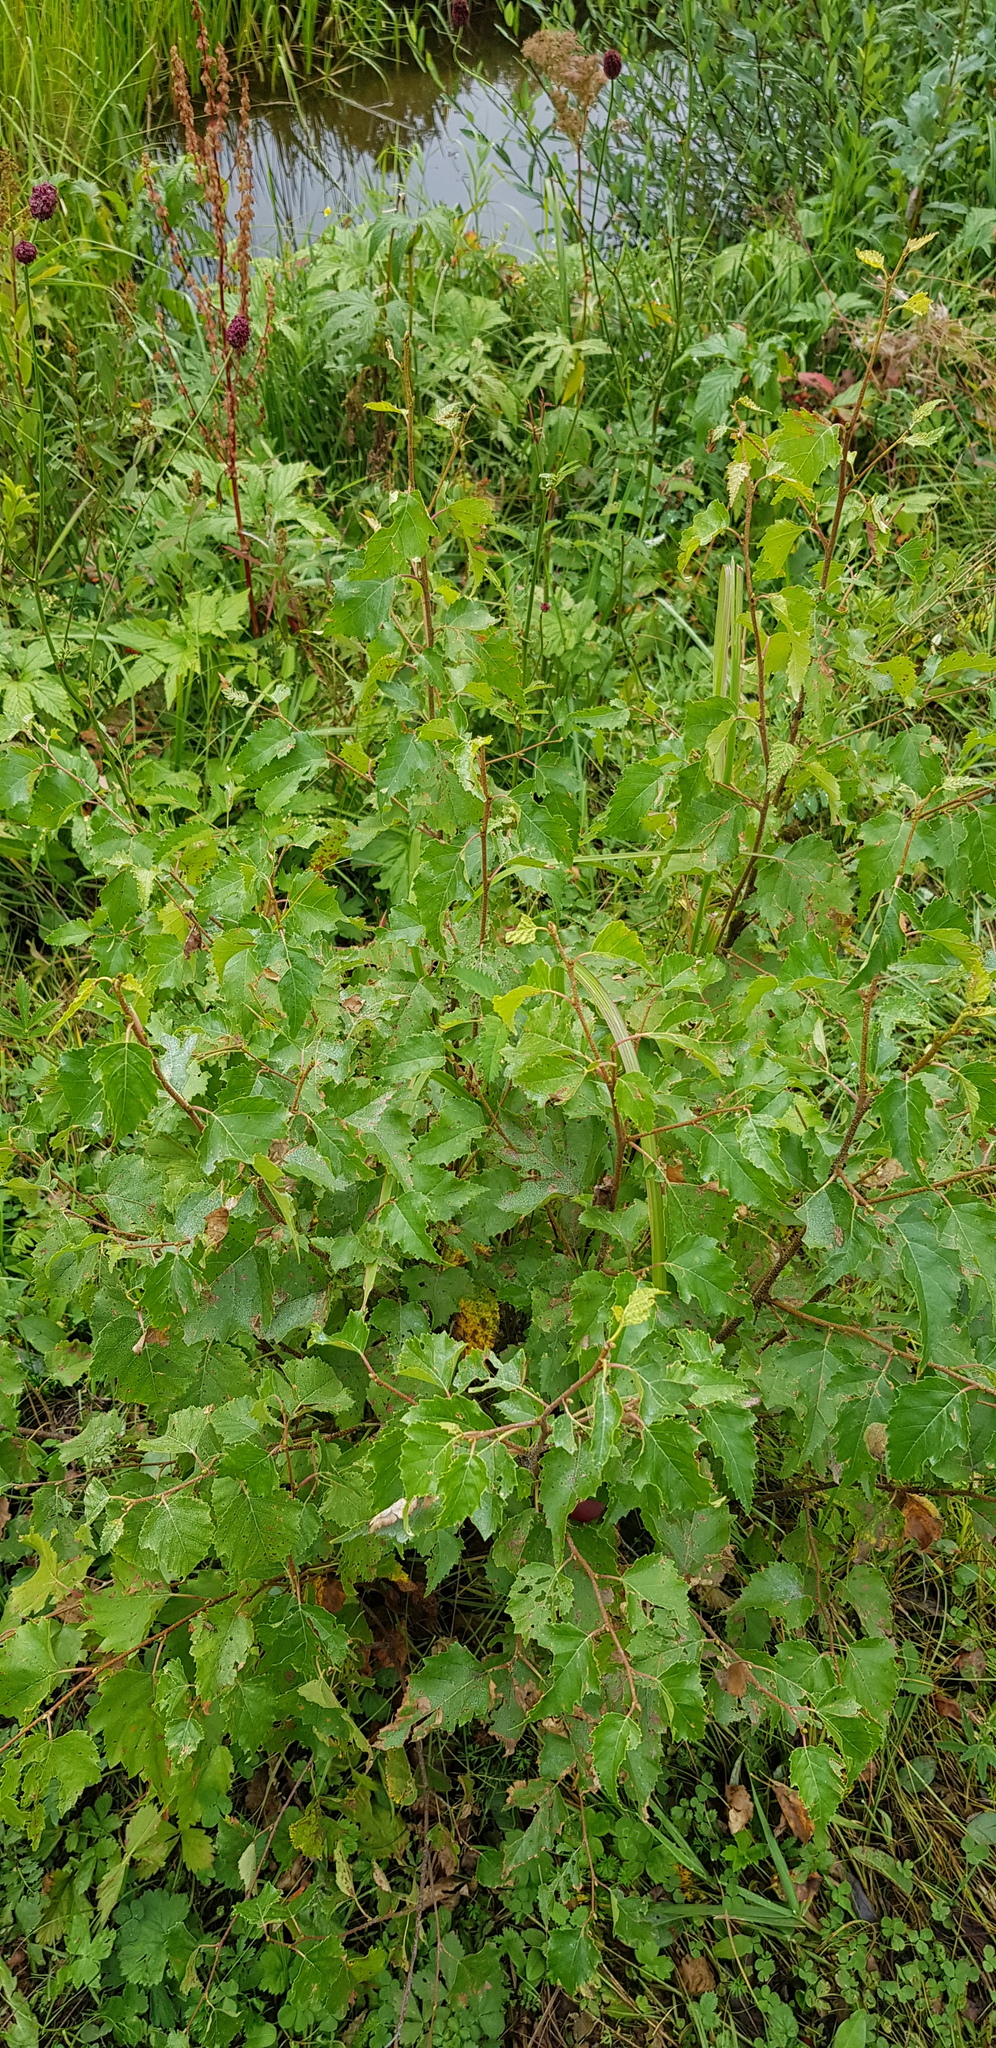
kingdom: Plantae
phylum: Tracheophyta
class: Magnoliopsida
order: Fagales
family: Betulaceae
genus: Betula
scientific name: Betula pendula
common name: Silver birch
